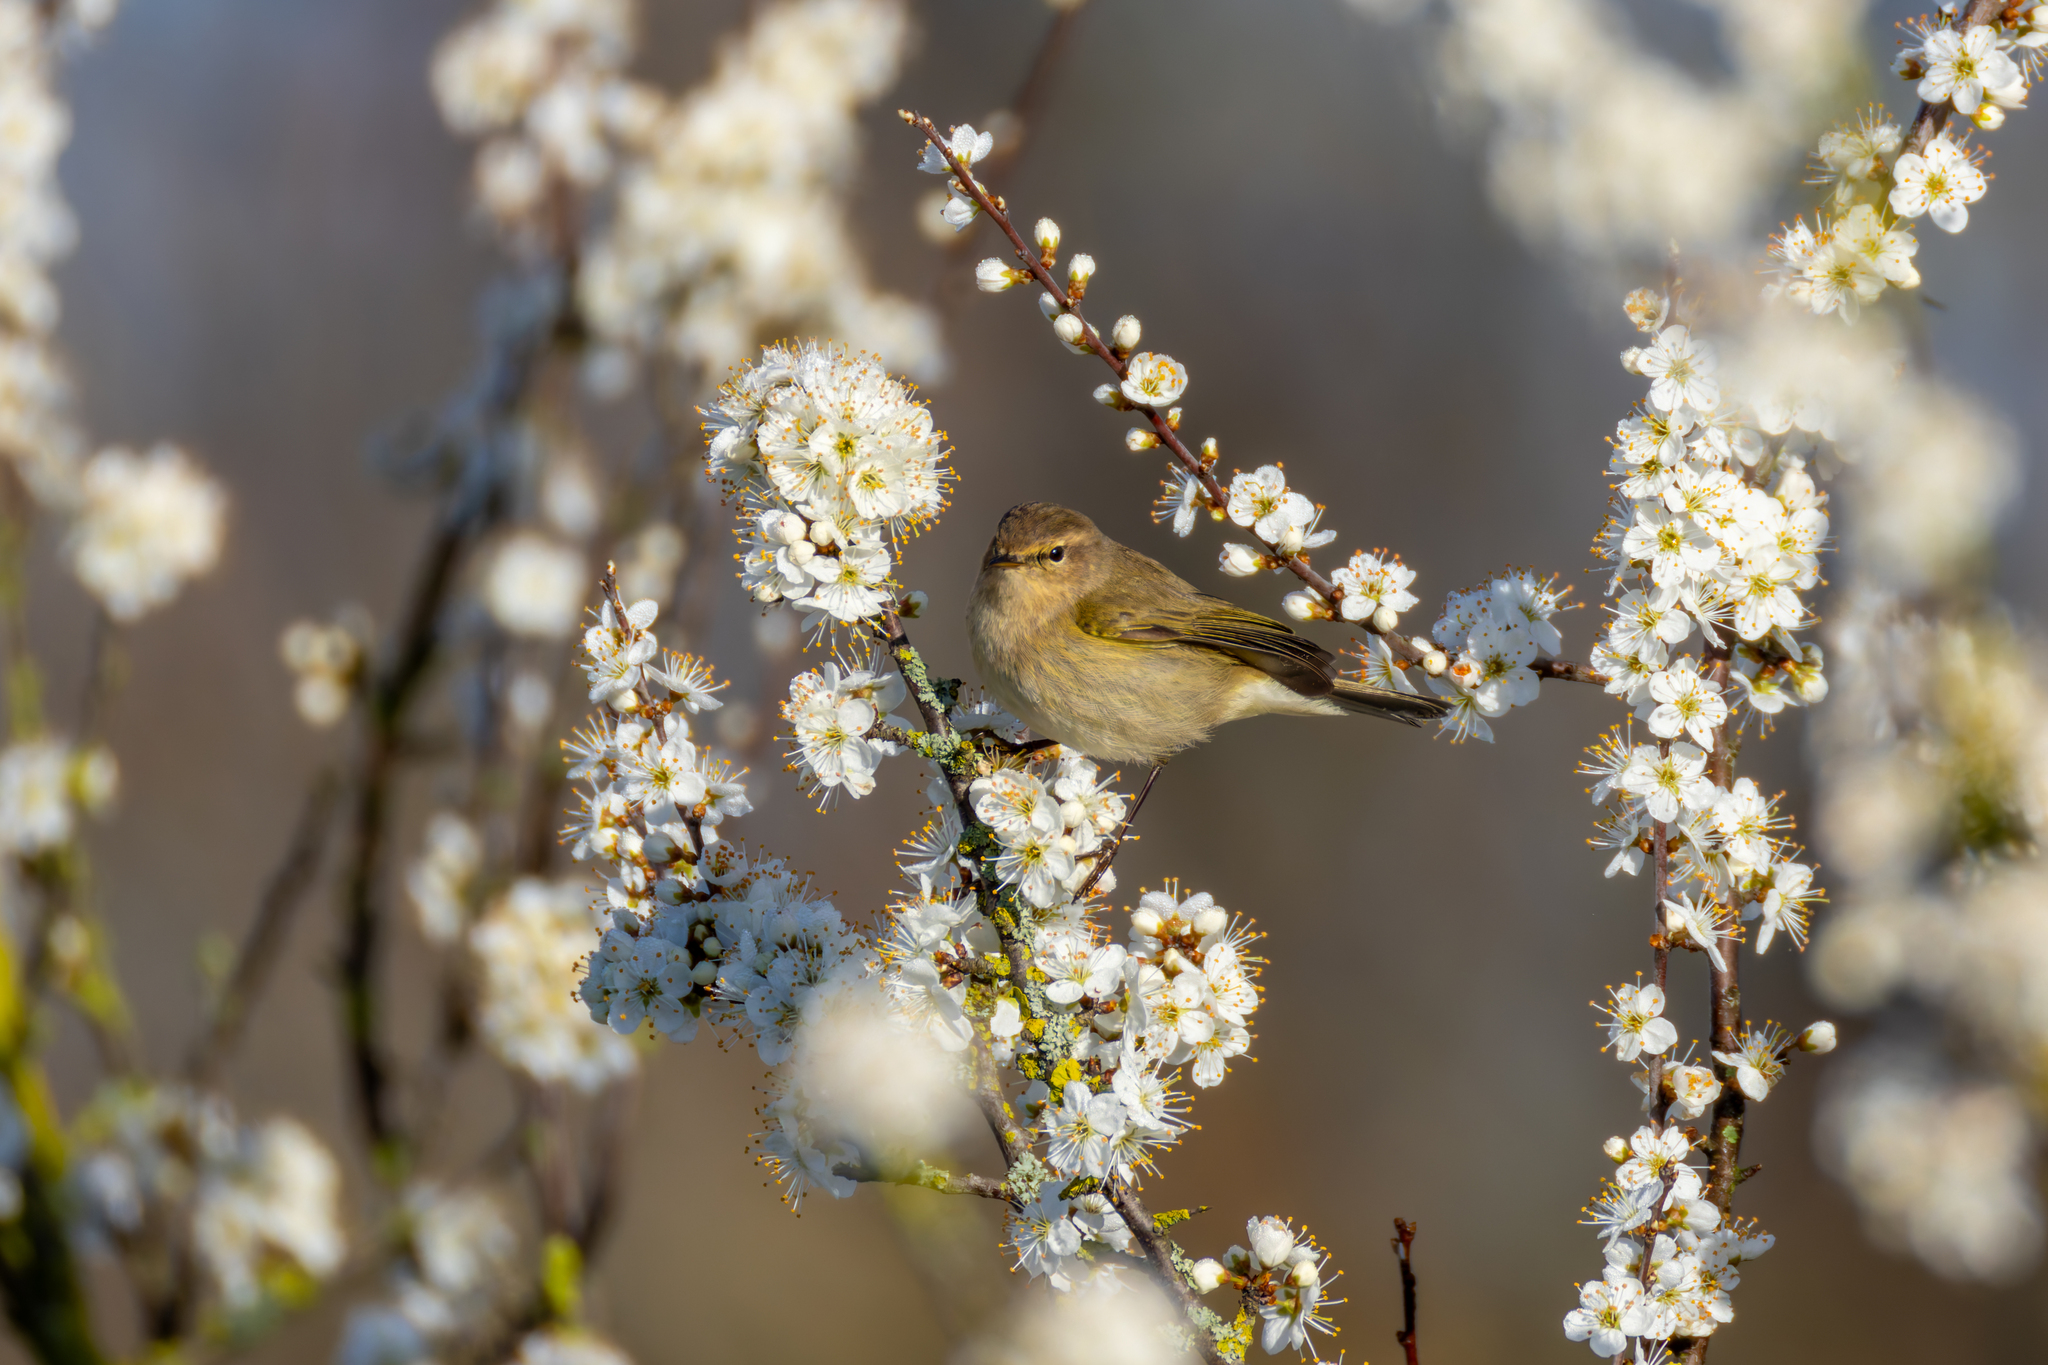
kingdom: Animalia
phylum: Chordata
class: Aves
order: Passeriformes
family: Phylloscopidae
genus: Phylloscopus
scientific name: Phylloscopus collybita
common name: Common chiffchaff
